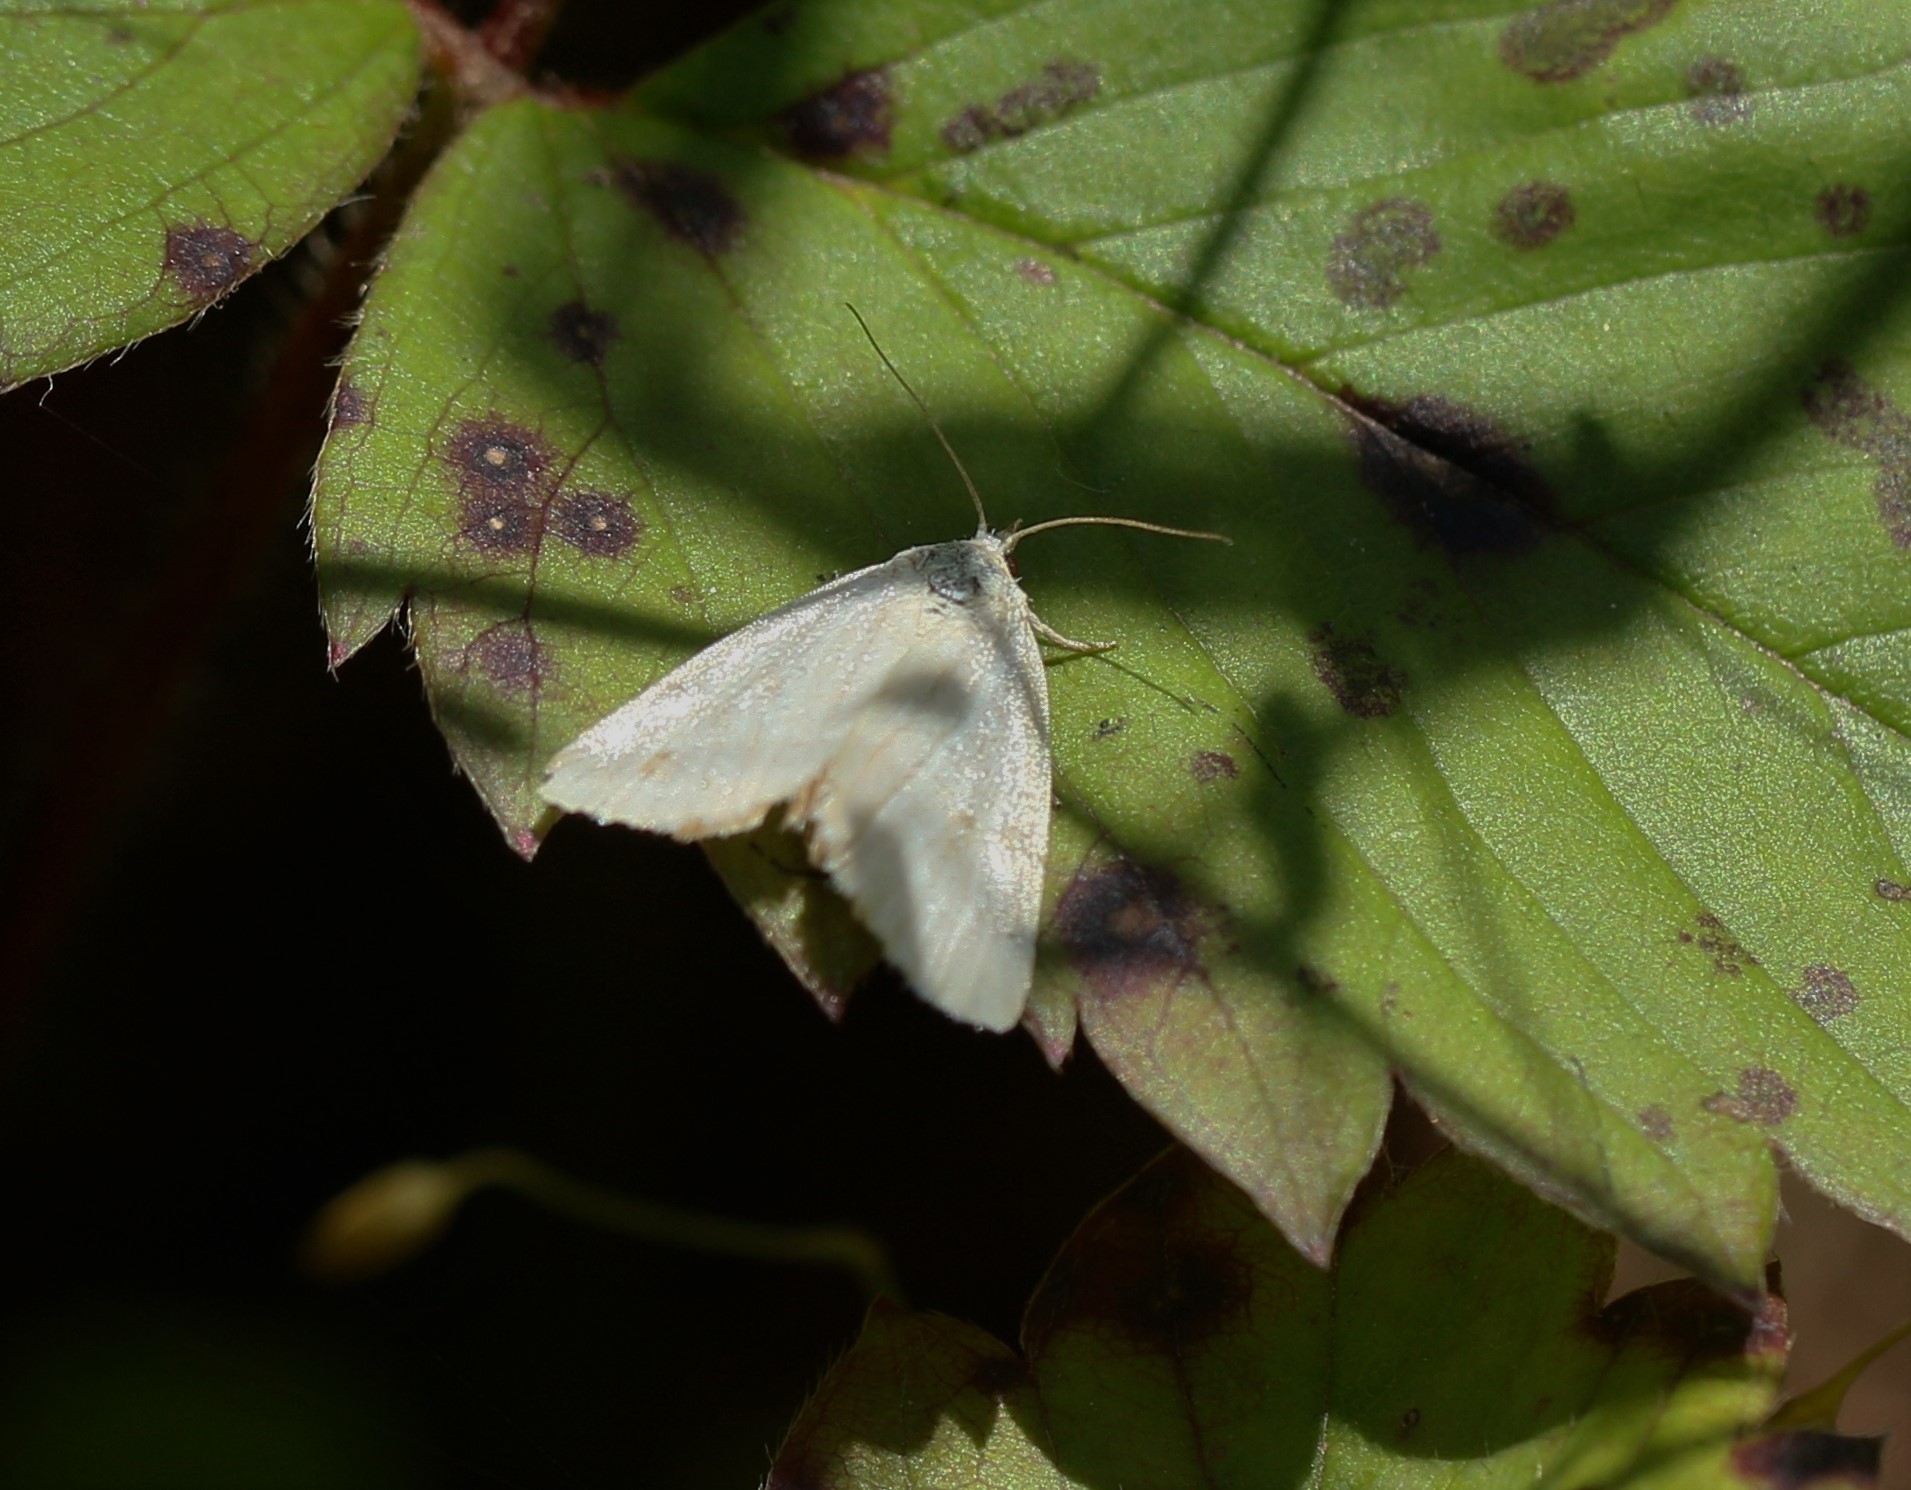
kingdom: Animalia
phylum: Arthropoda
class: Insecta
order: Lepidoptera
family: Noctuidae
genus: Protodeltote
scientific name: Protodeltote albidula
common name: Pale glyph
